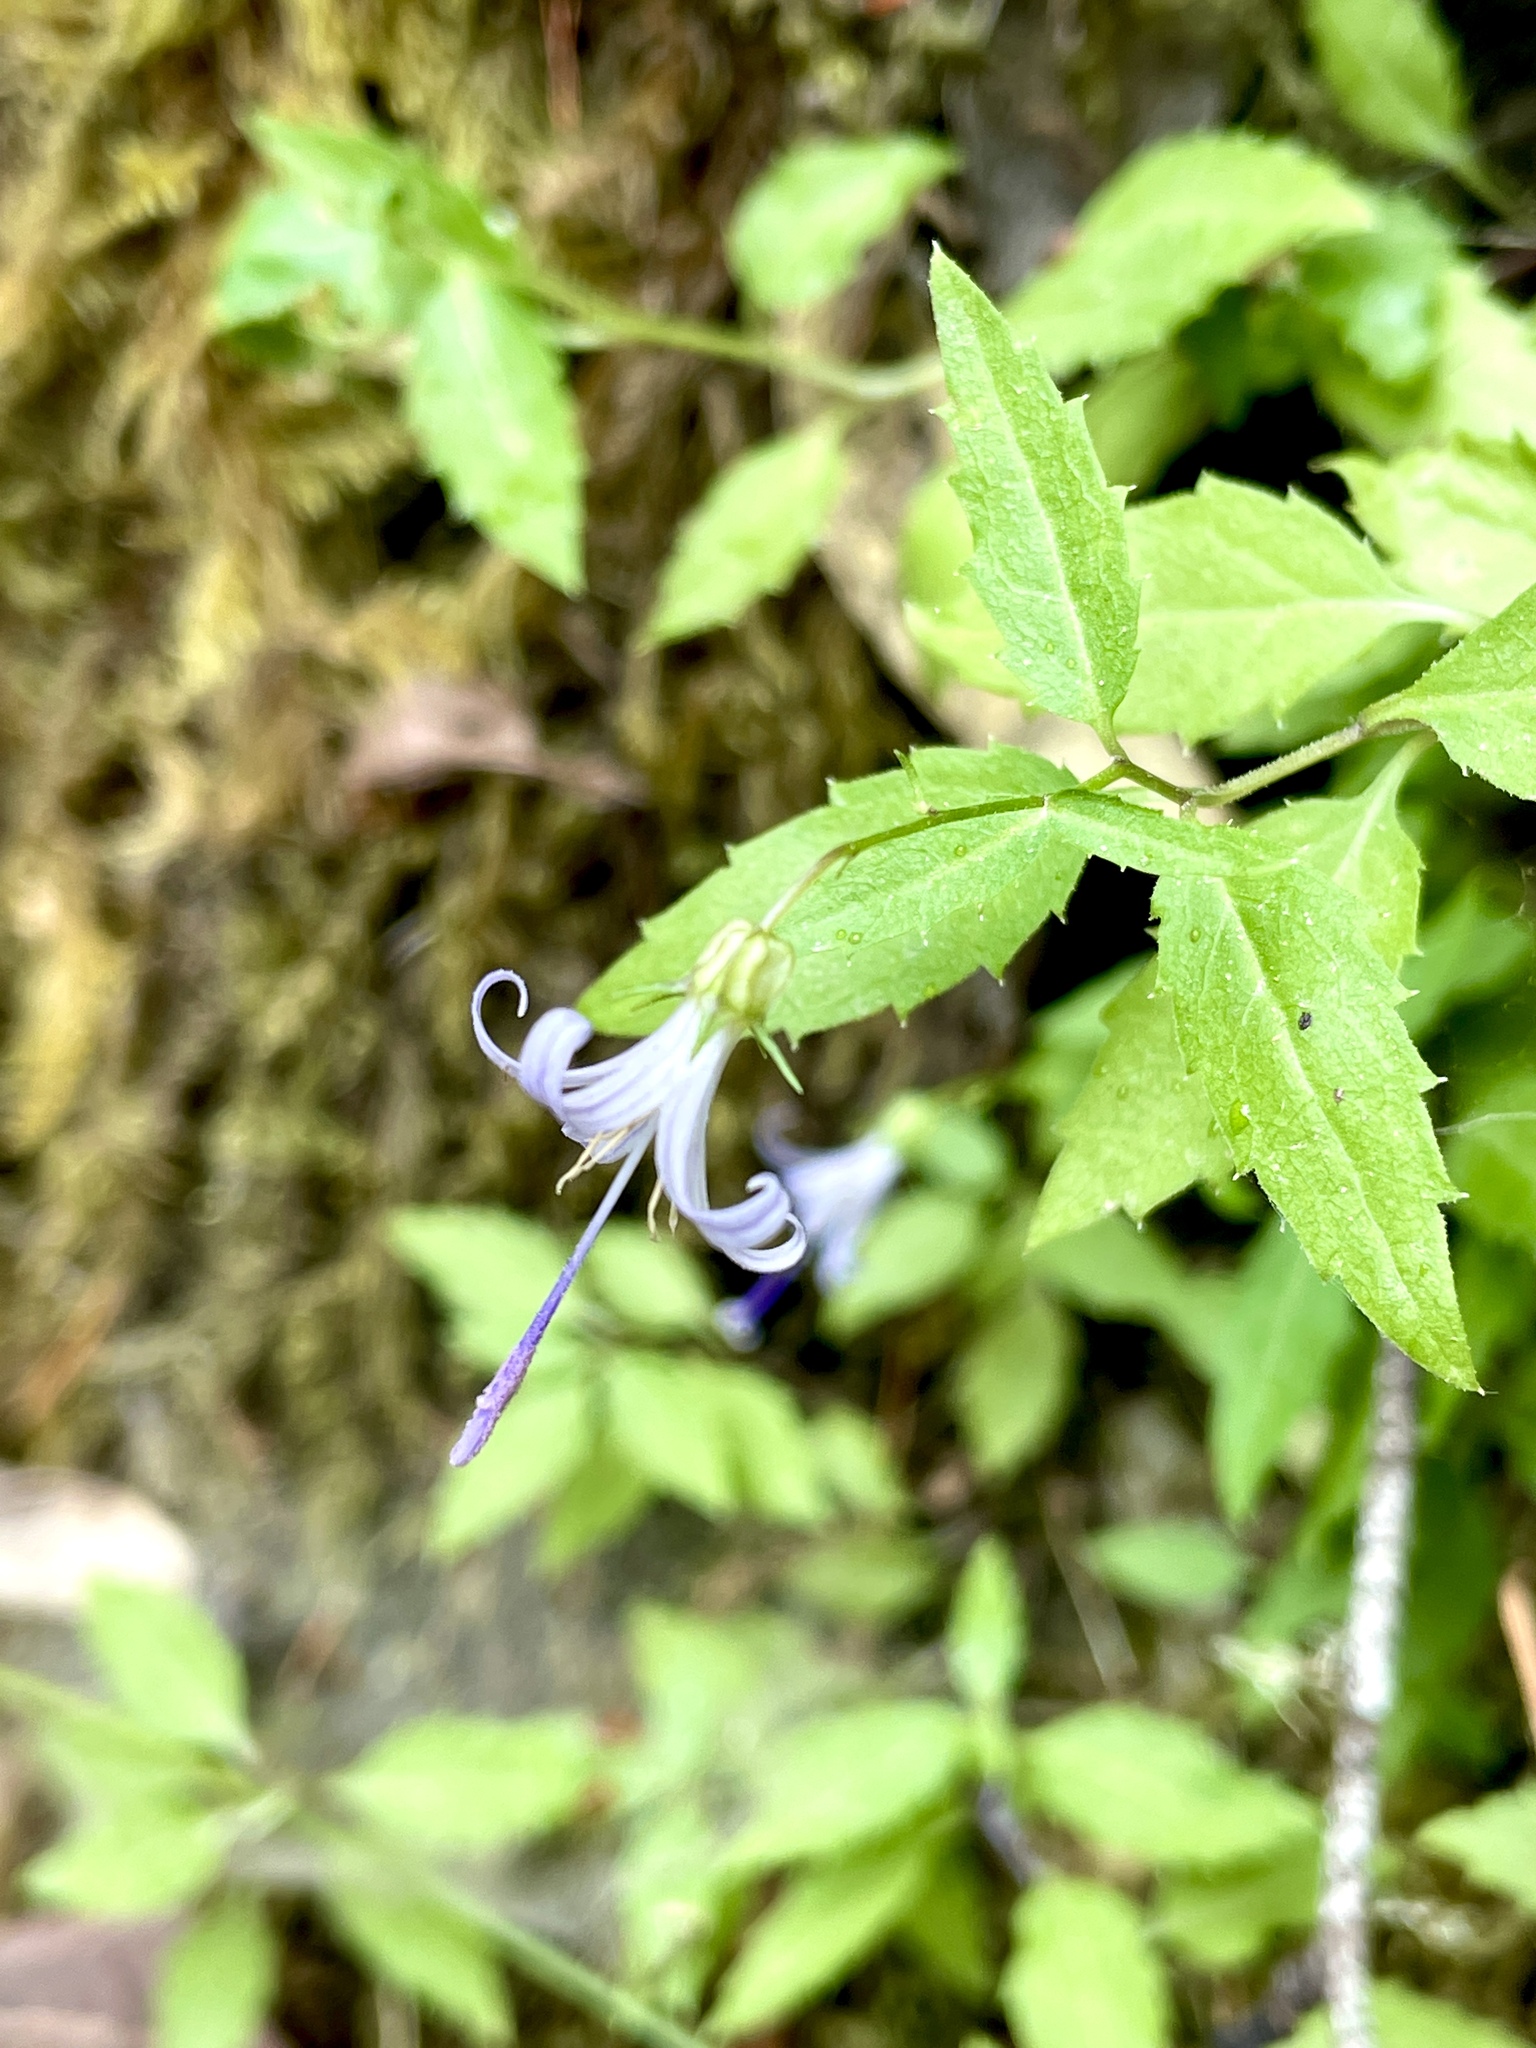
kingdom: Plantae
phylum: Tracheophyta
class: Magnoliopsida
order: Asterales
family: Campanulaceae
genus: Smithiastrum
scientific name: Smithiastrum prenanthoides
